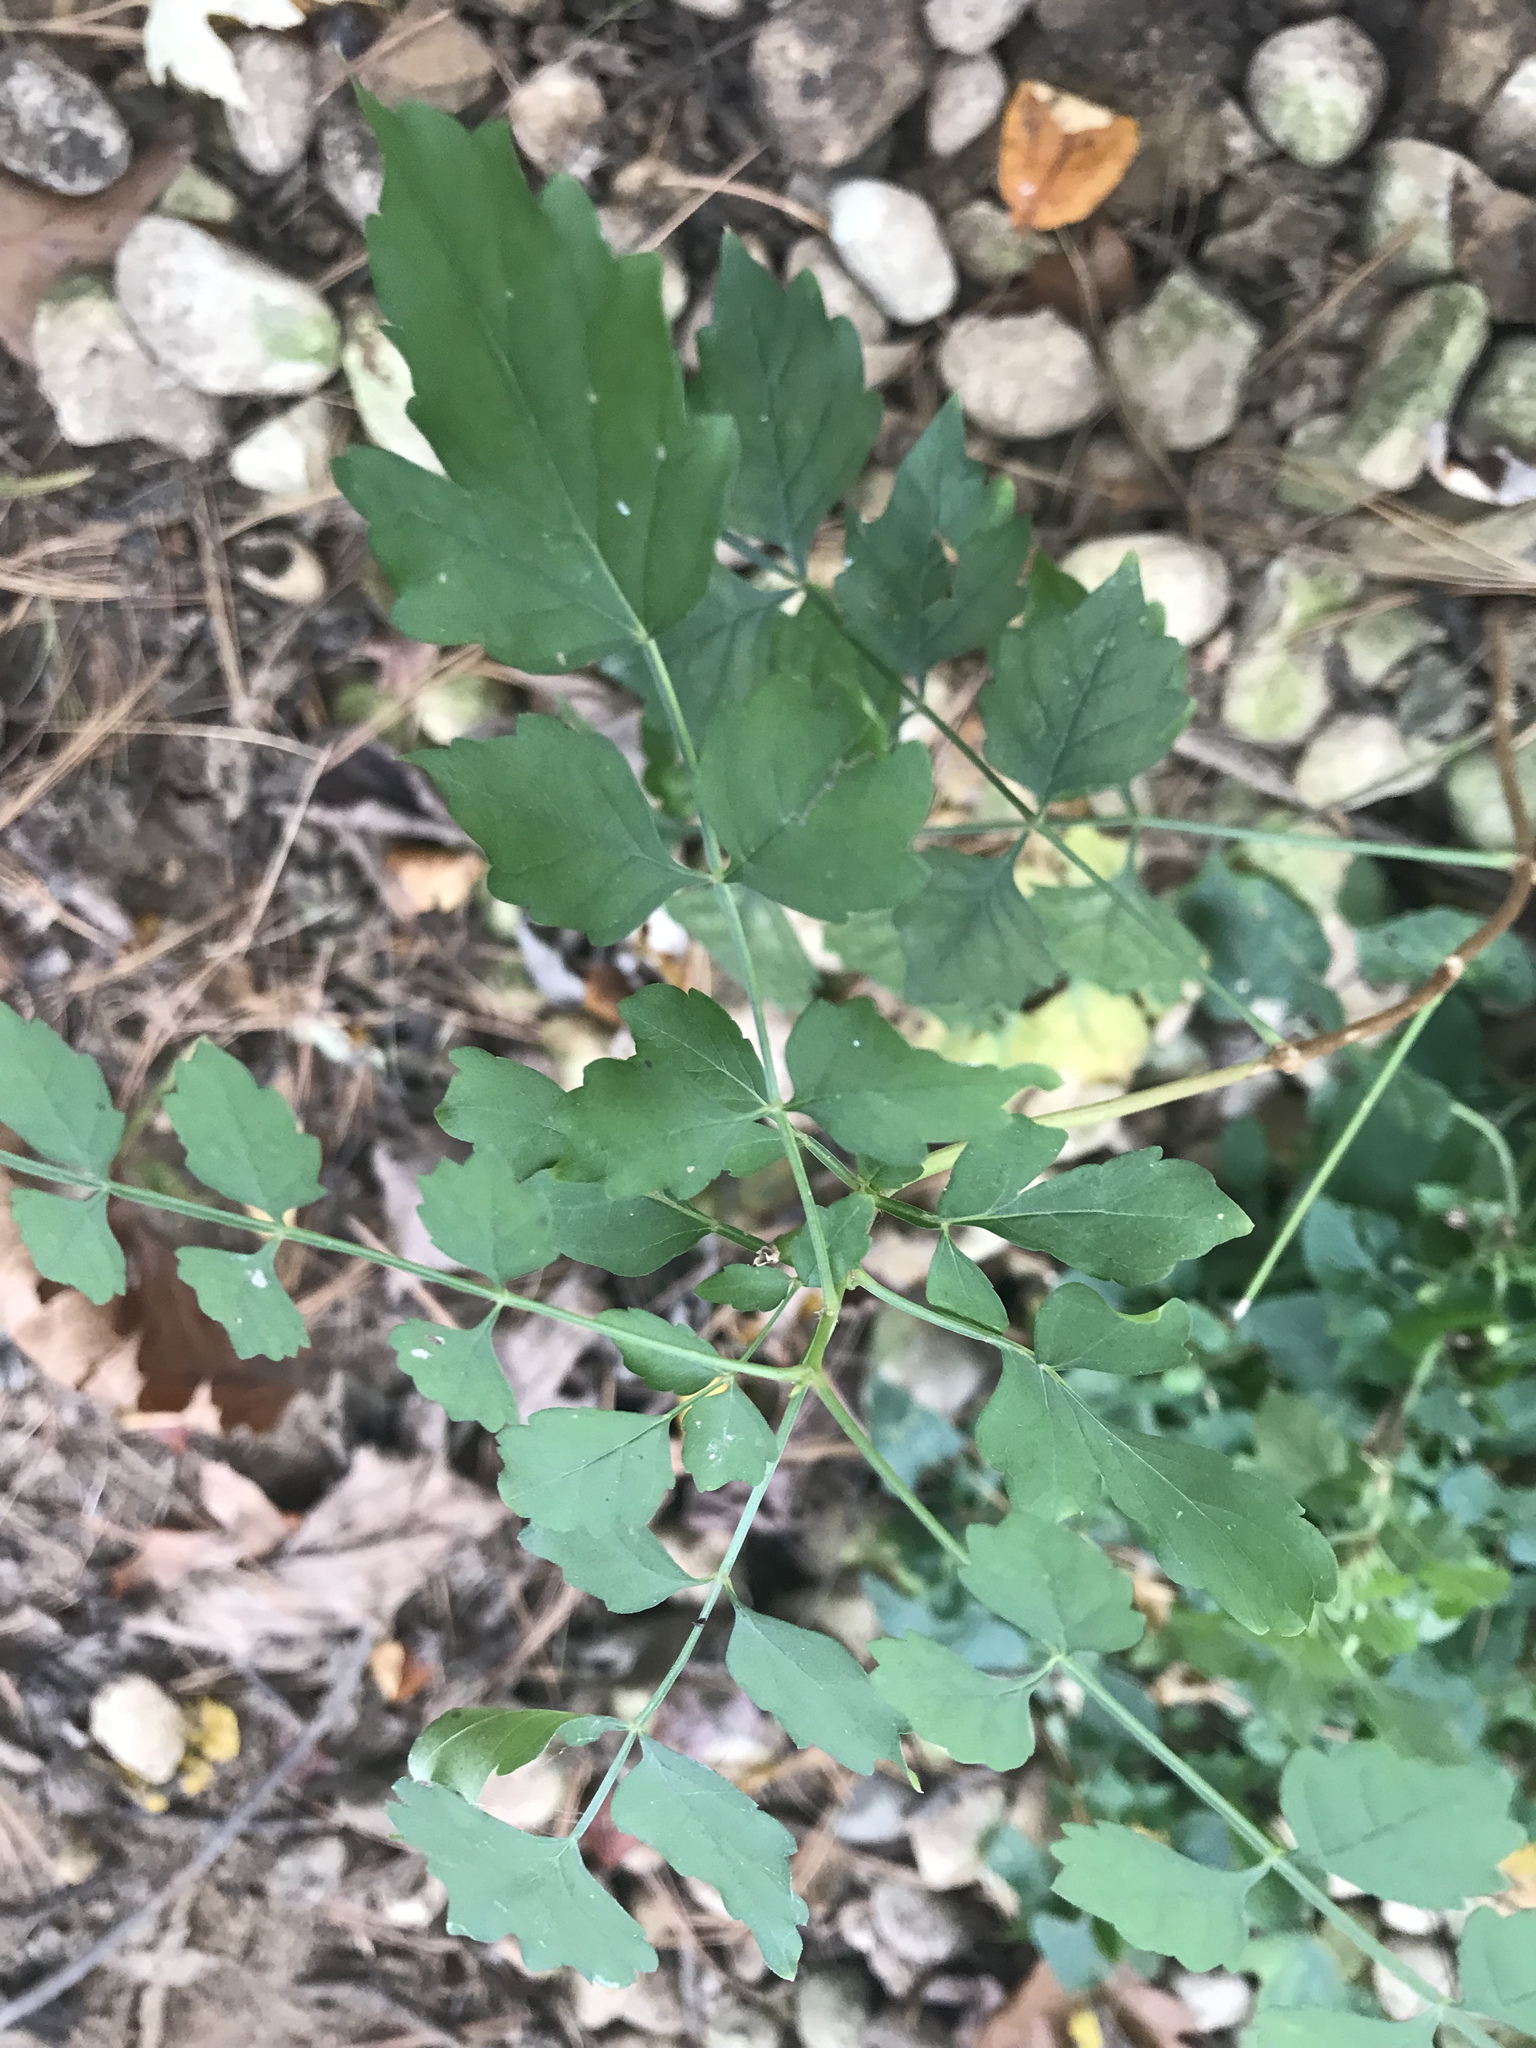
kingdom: Plantae
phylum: Tracheophyta
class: Magnoliopsida
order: Lamiales
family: Bignoniaceae
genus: Campsis
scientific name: Campsis radicans
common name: Trumpet-creeper
